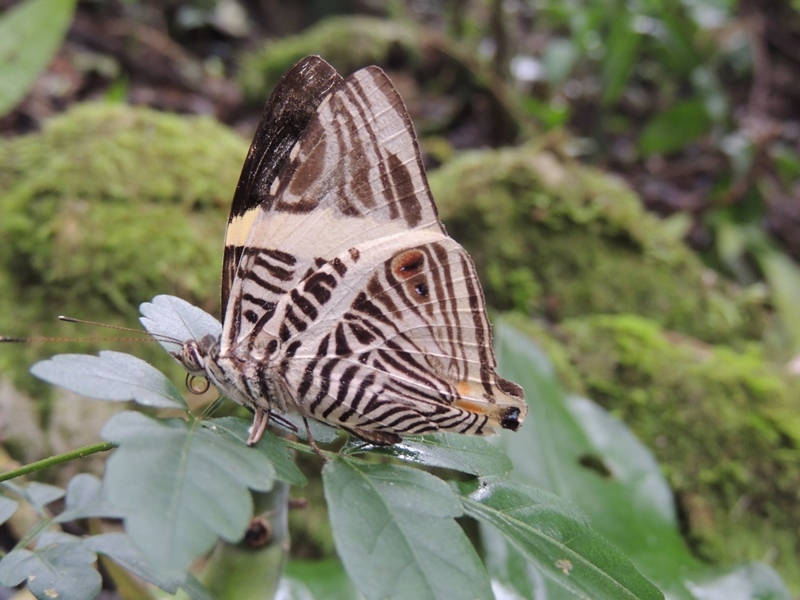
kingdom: Animalia
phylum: Arthropoda
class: Insecta
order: Lepidoptera
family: Nymphalidae
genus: Colobura
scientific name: Colobura dirce
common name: Dirce beauty
